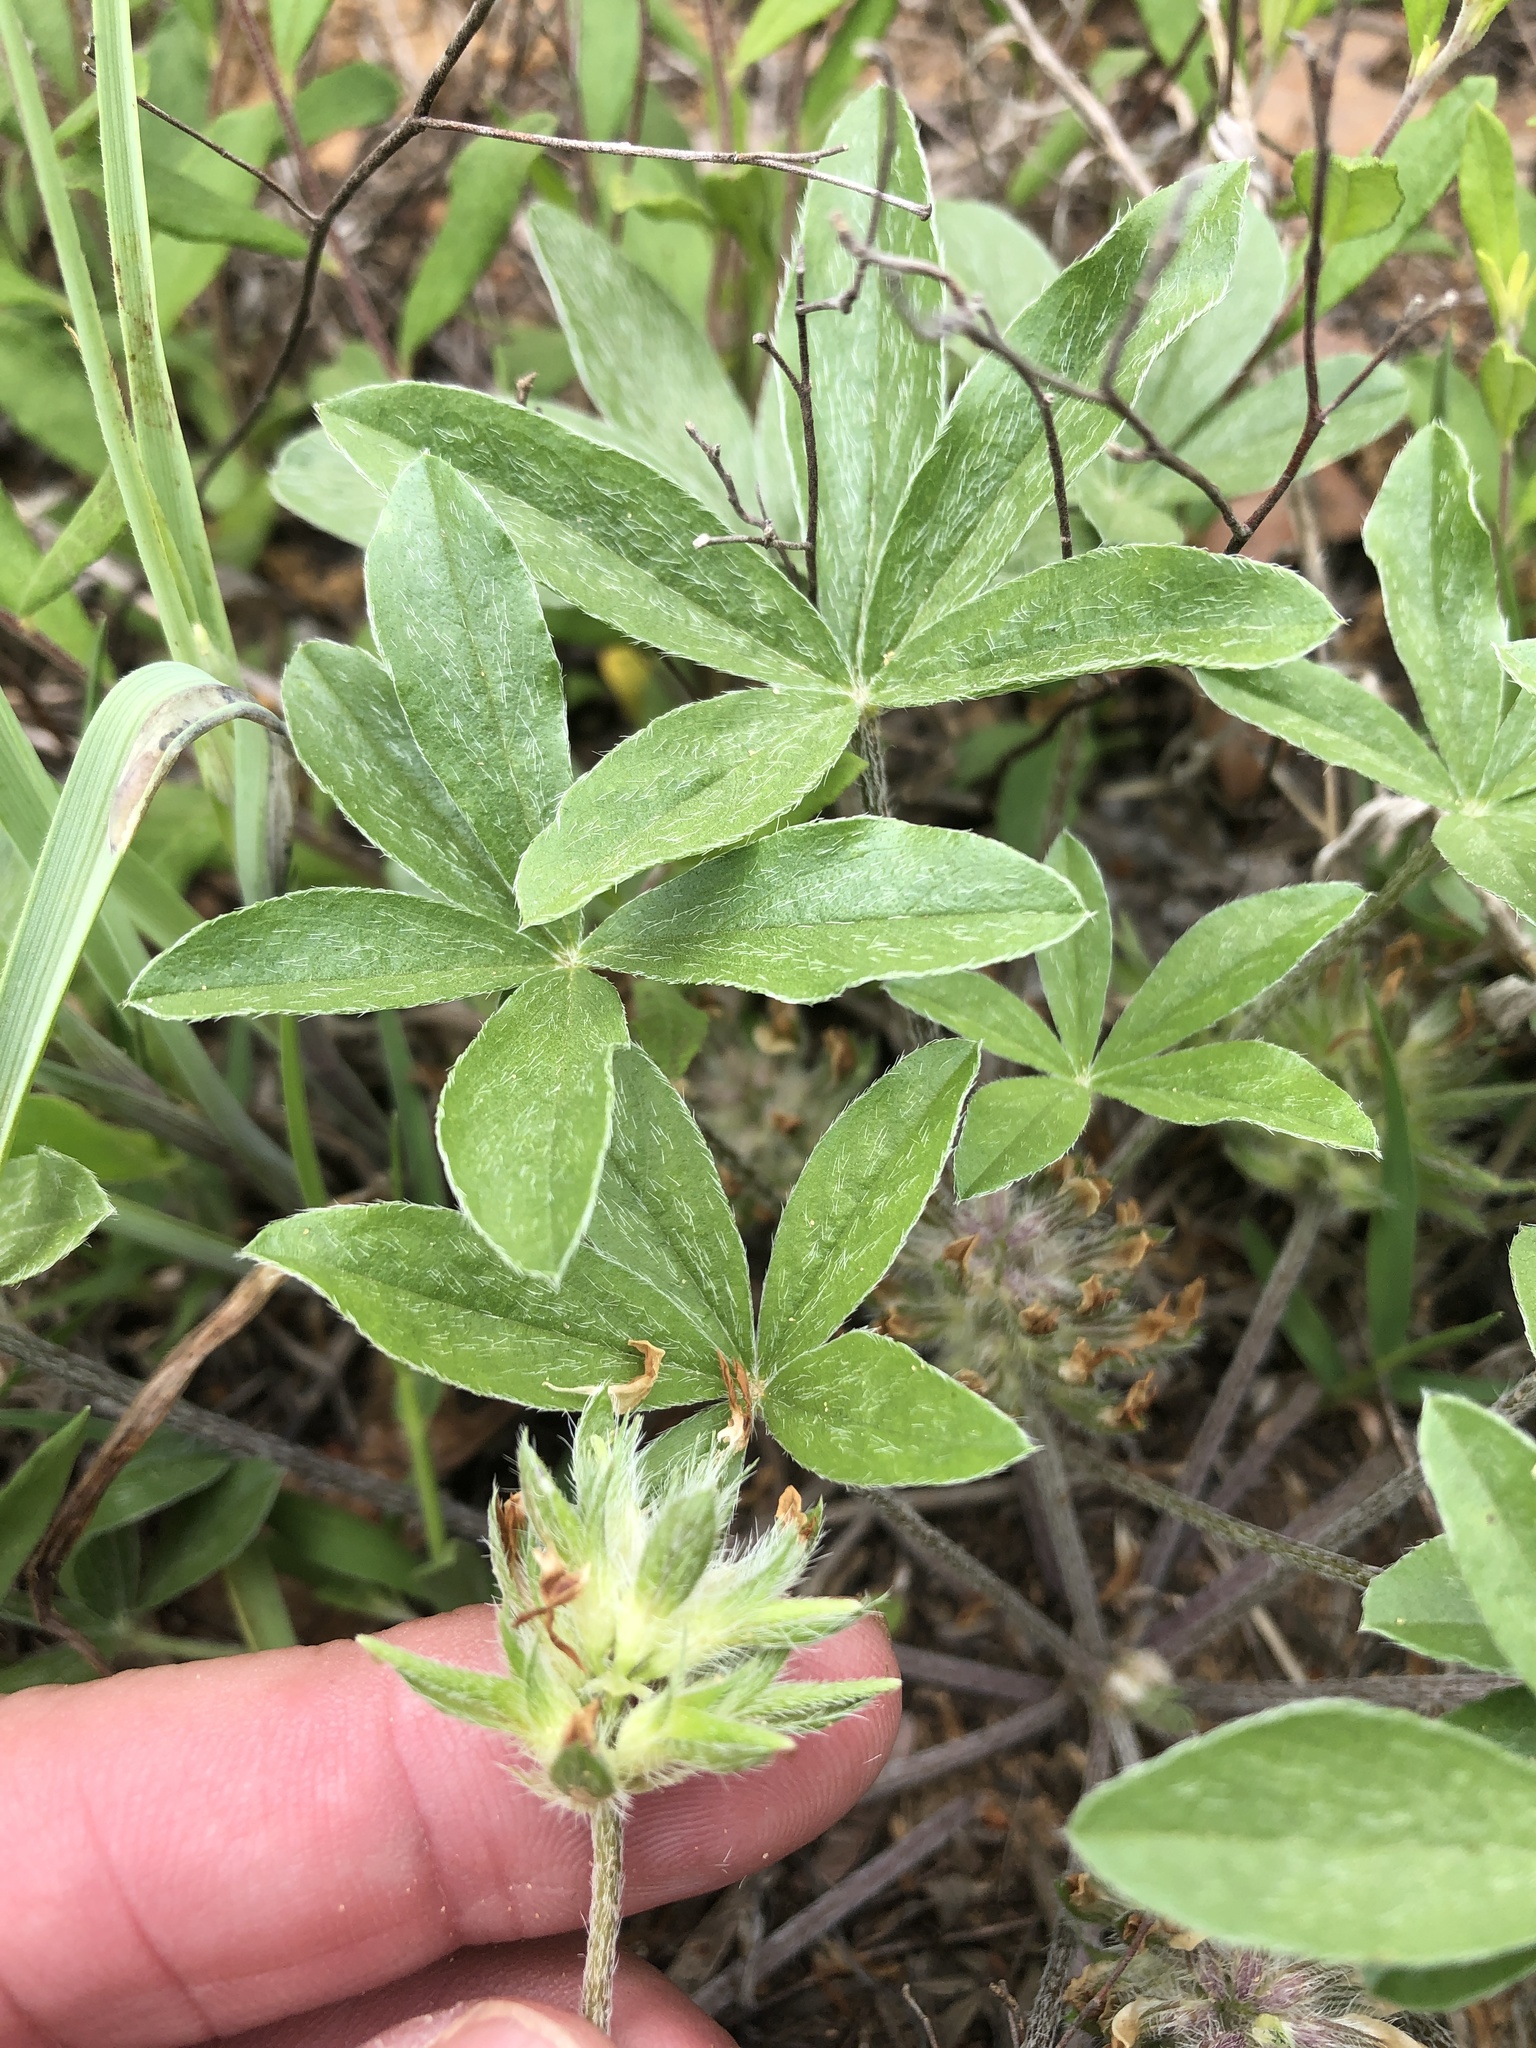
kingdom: Plantae
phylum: Tracheophyta
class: Magnoliopsida
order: Fabales
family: Fabaceae
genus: Pediomelum
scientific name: Pediomelum hypogaeum
